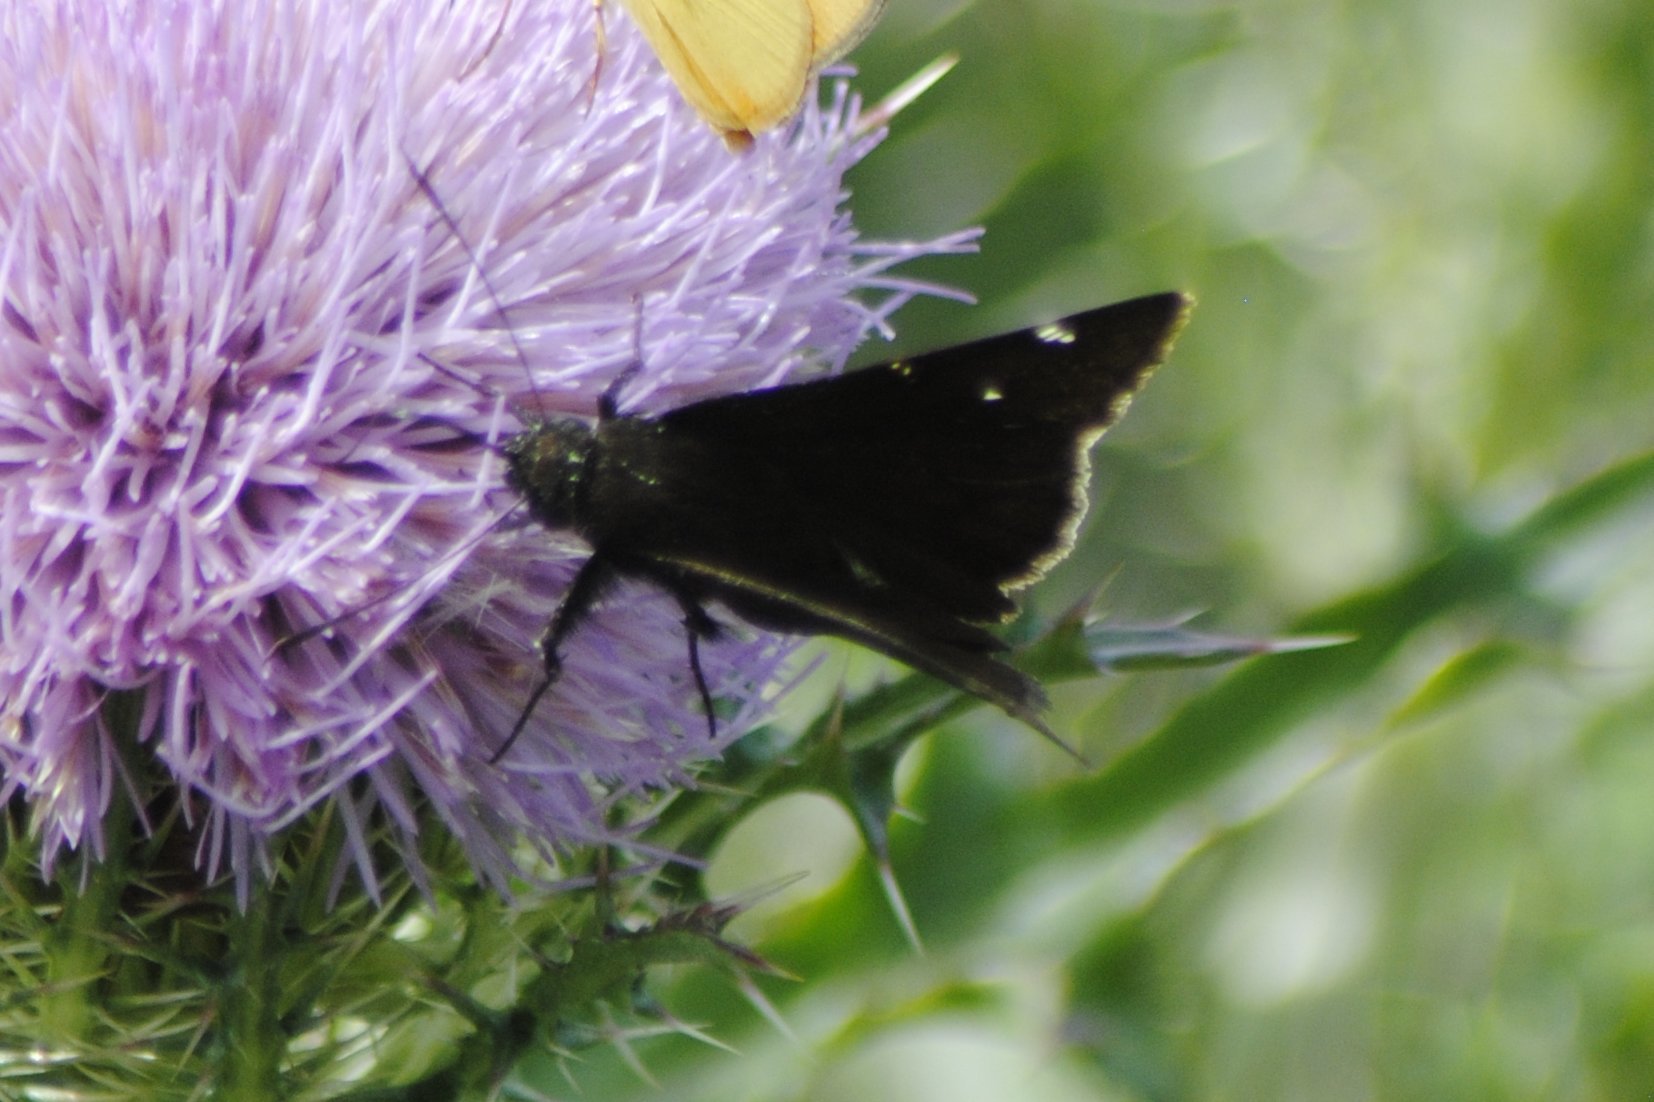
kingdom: Animalia
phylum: Arthropoda
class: Insecta
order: Lepidoptera
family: Hesperiidae
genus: Thorybes
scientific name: Thorybes pylades
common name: Northern cloudywing
